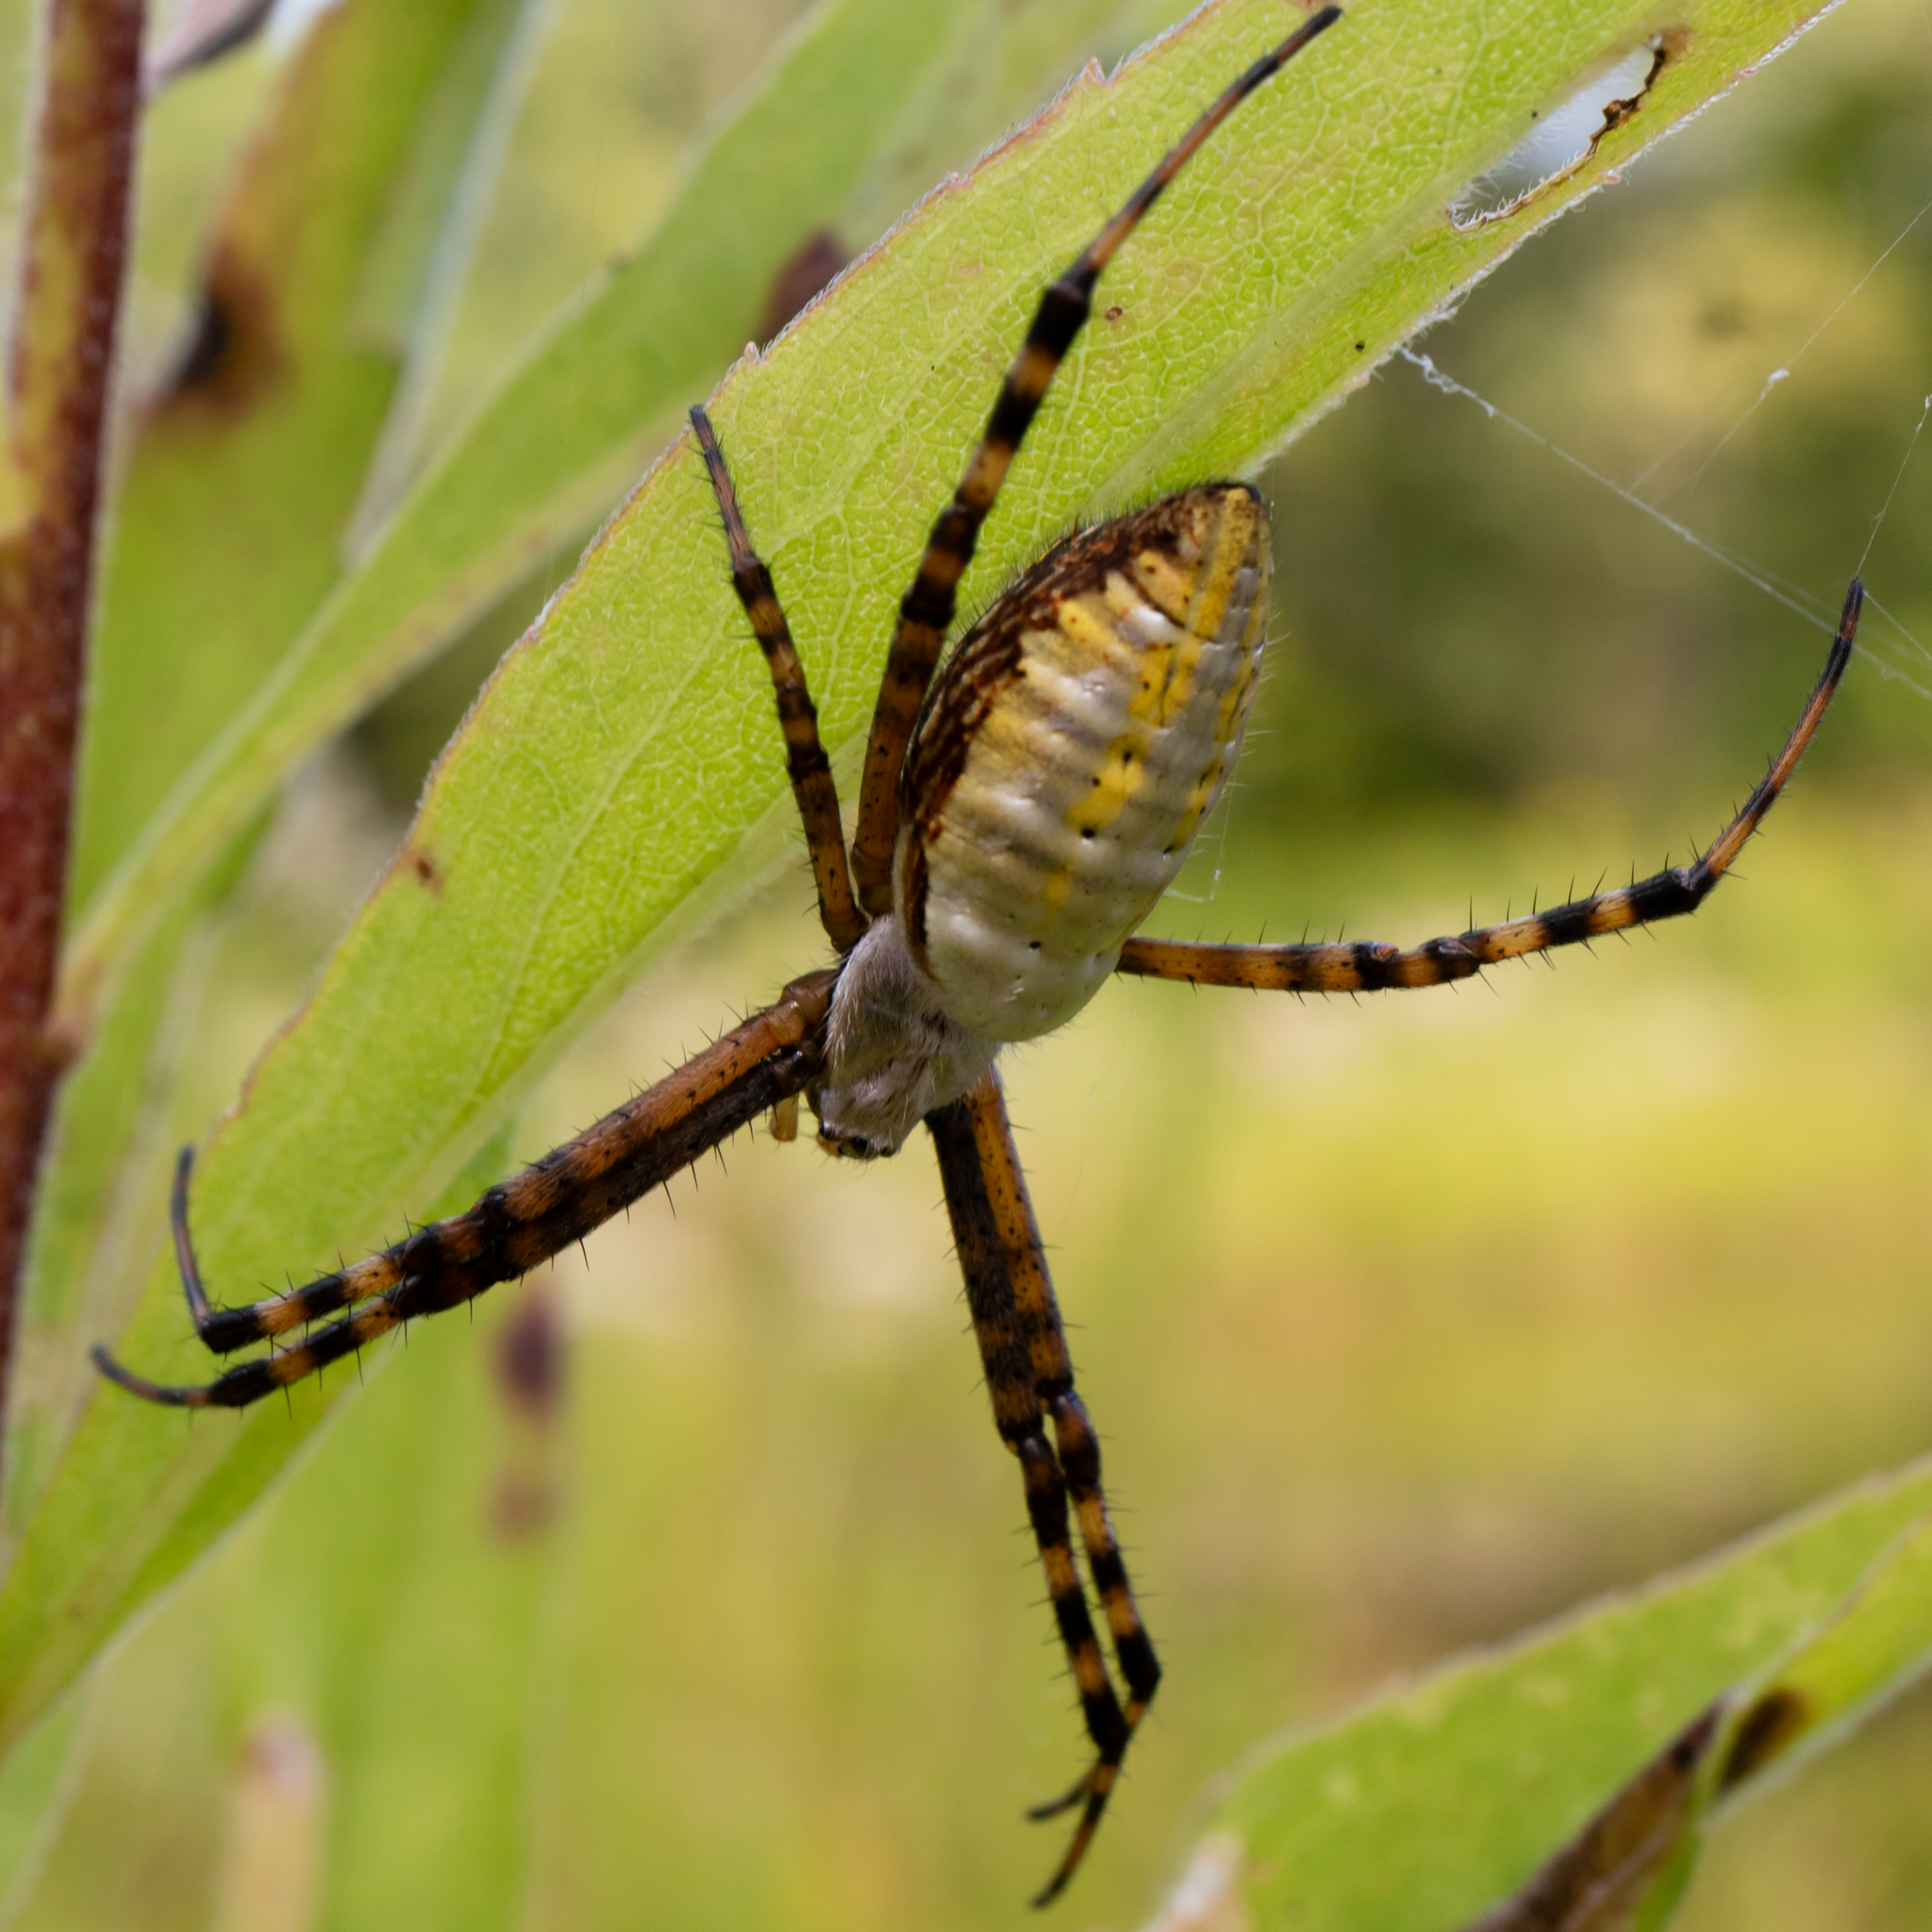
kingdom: Animalia
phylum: Arthropoda
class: Arachnida
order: Araneae
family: Araneidae
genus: Argiope
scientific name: Argiope trifasciata
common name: Banded garden spider
